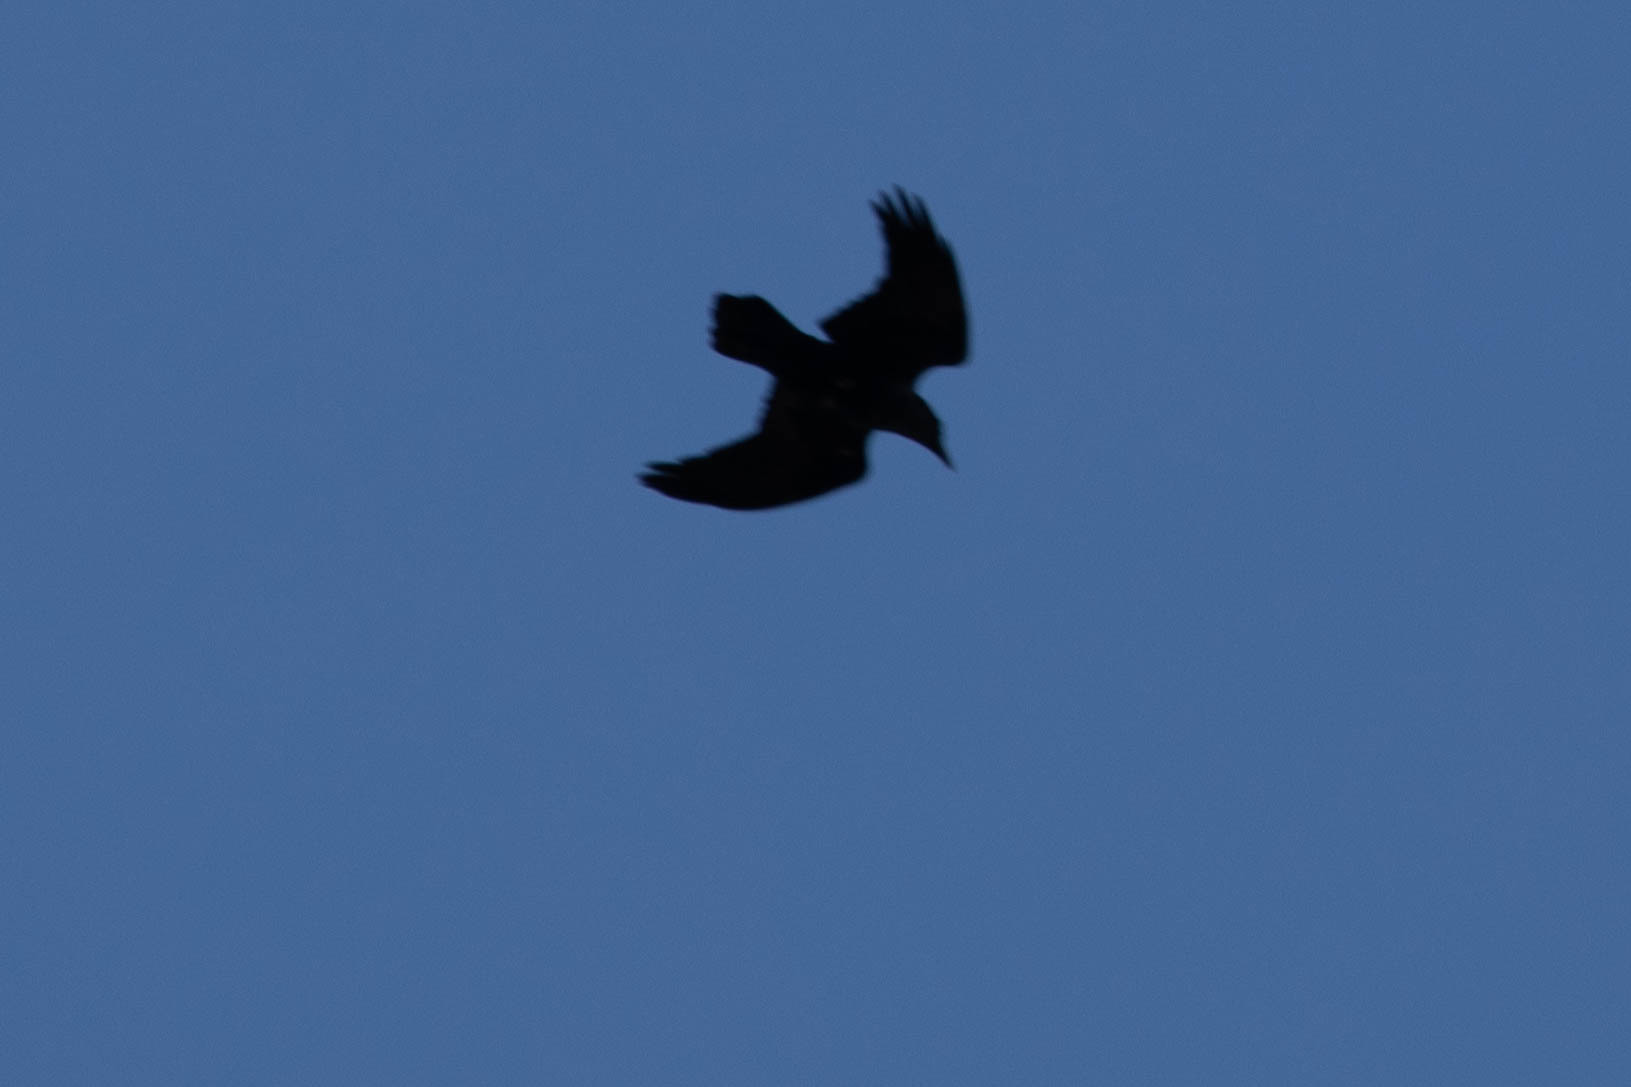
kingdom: Animalia
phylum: Chordata
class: Aves
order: Passeriformes
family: Corvidae
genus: Corvus
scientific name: Corvus corax
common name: Common raven
